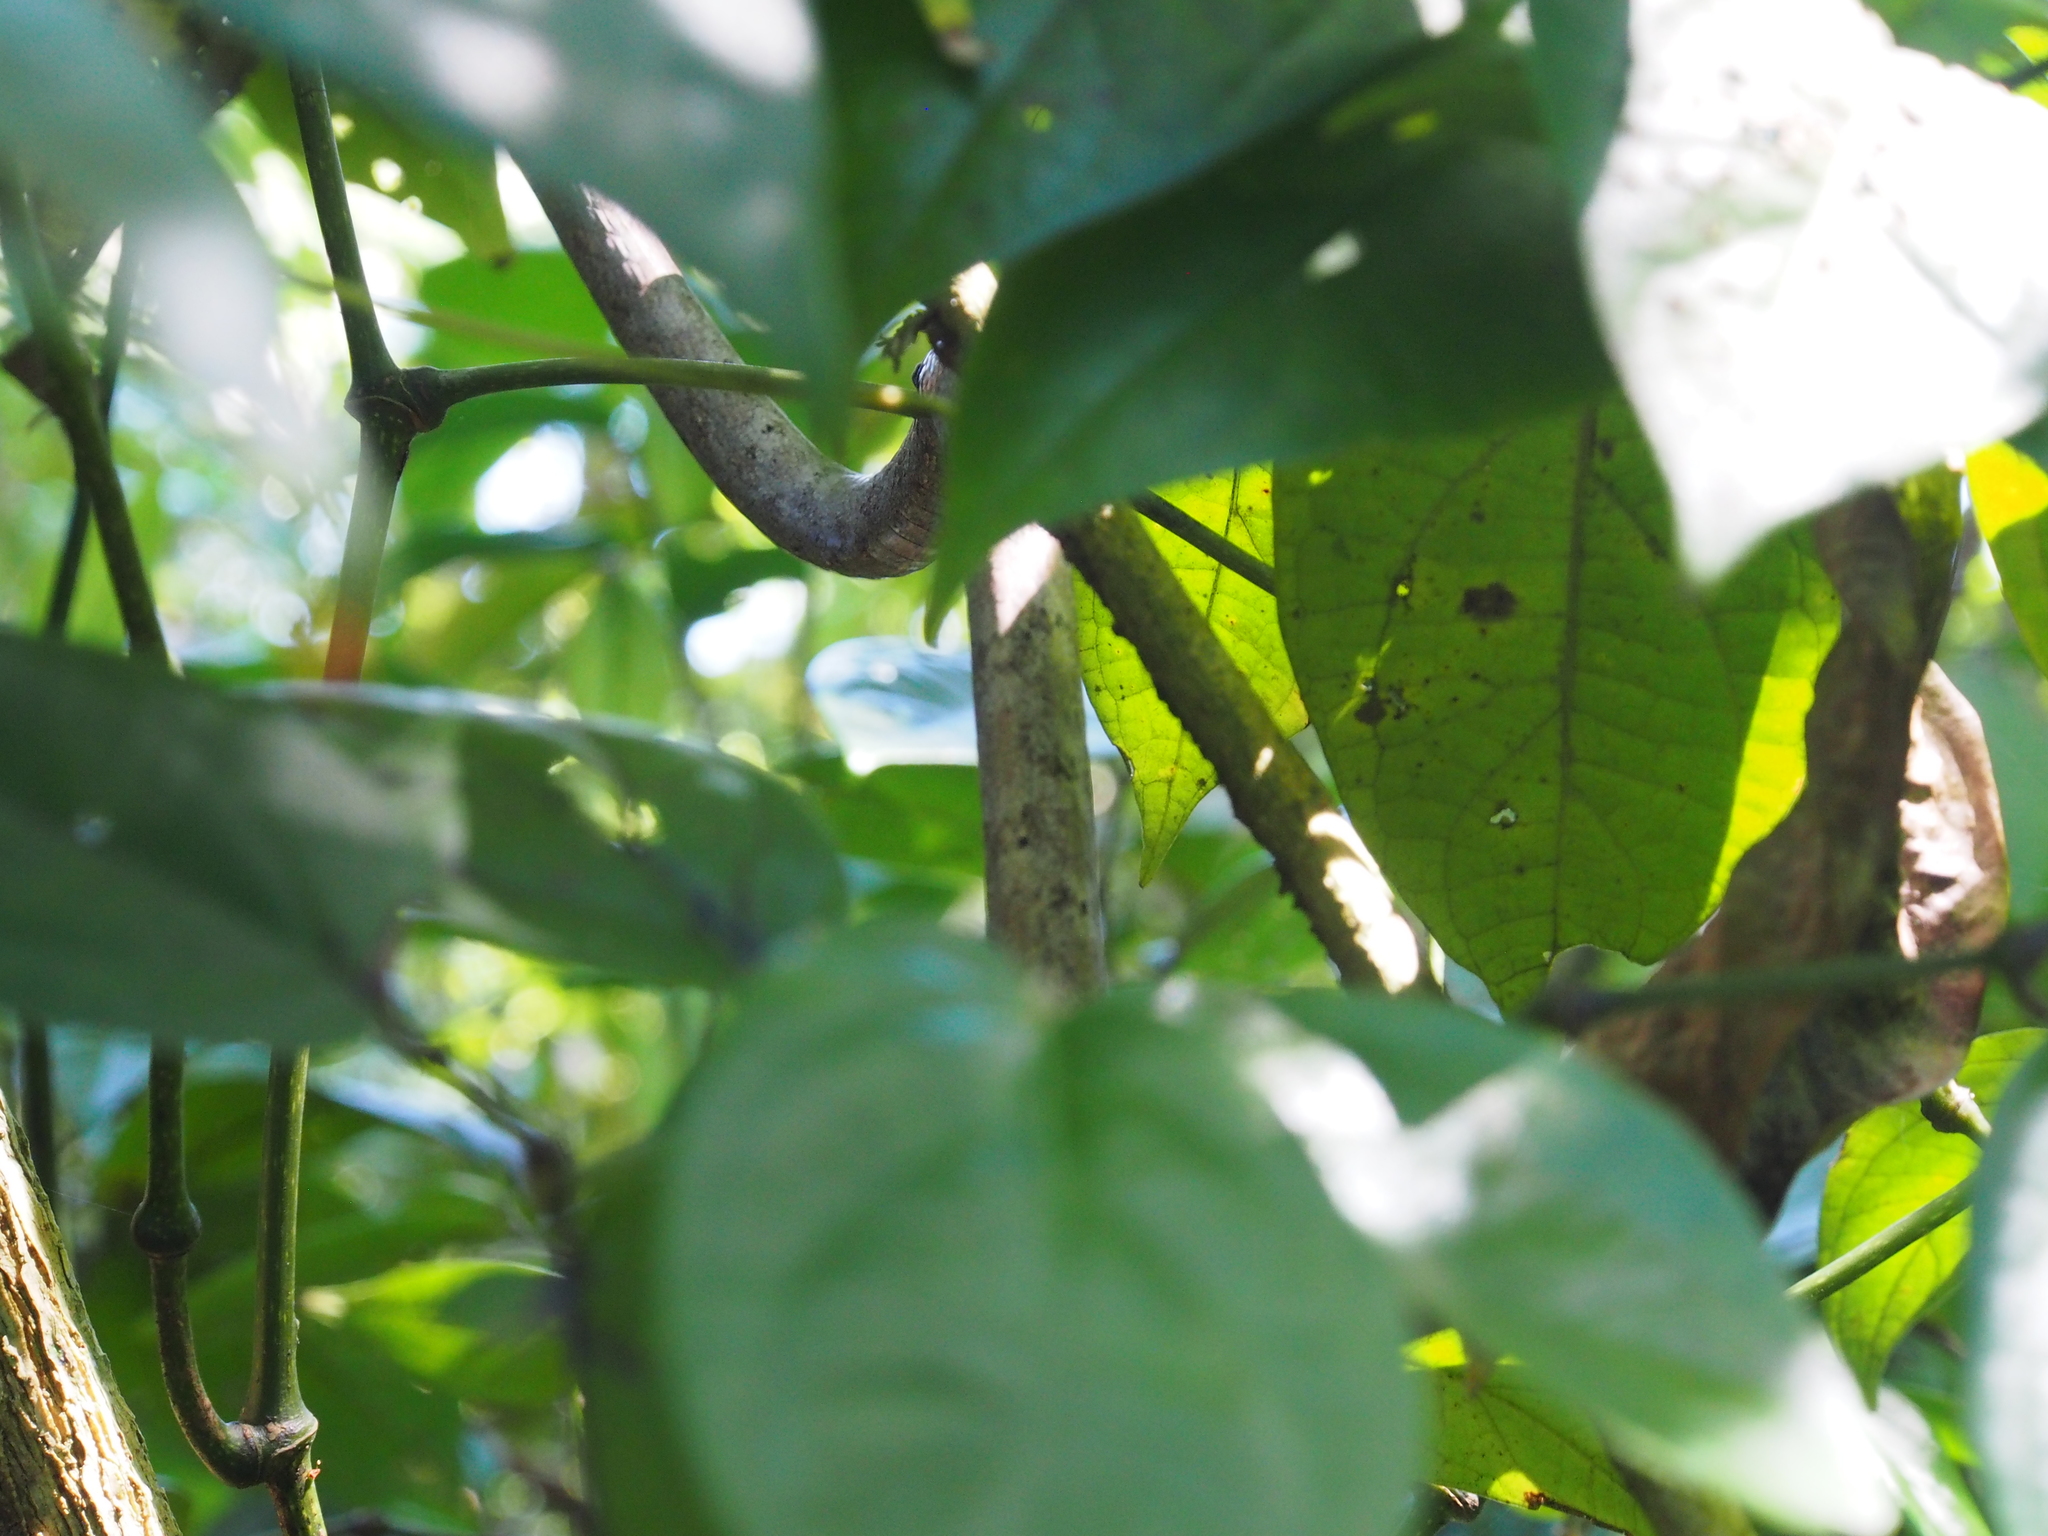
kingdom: Animalia
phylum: Chordata
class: Squamata
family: Colubridae
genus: Oxybelis
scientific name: Oxybelis koehleri
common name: Köhler’s vine snake
